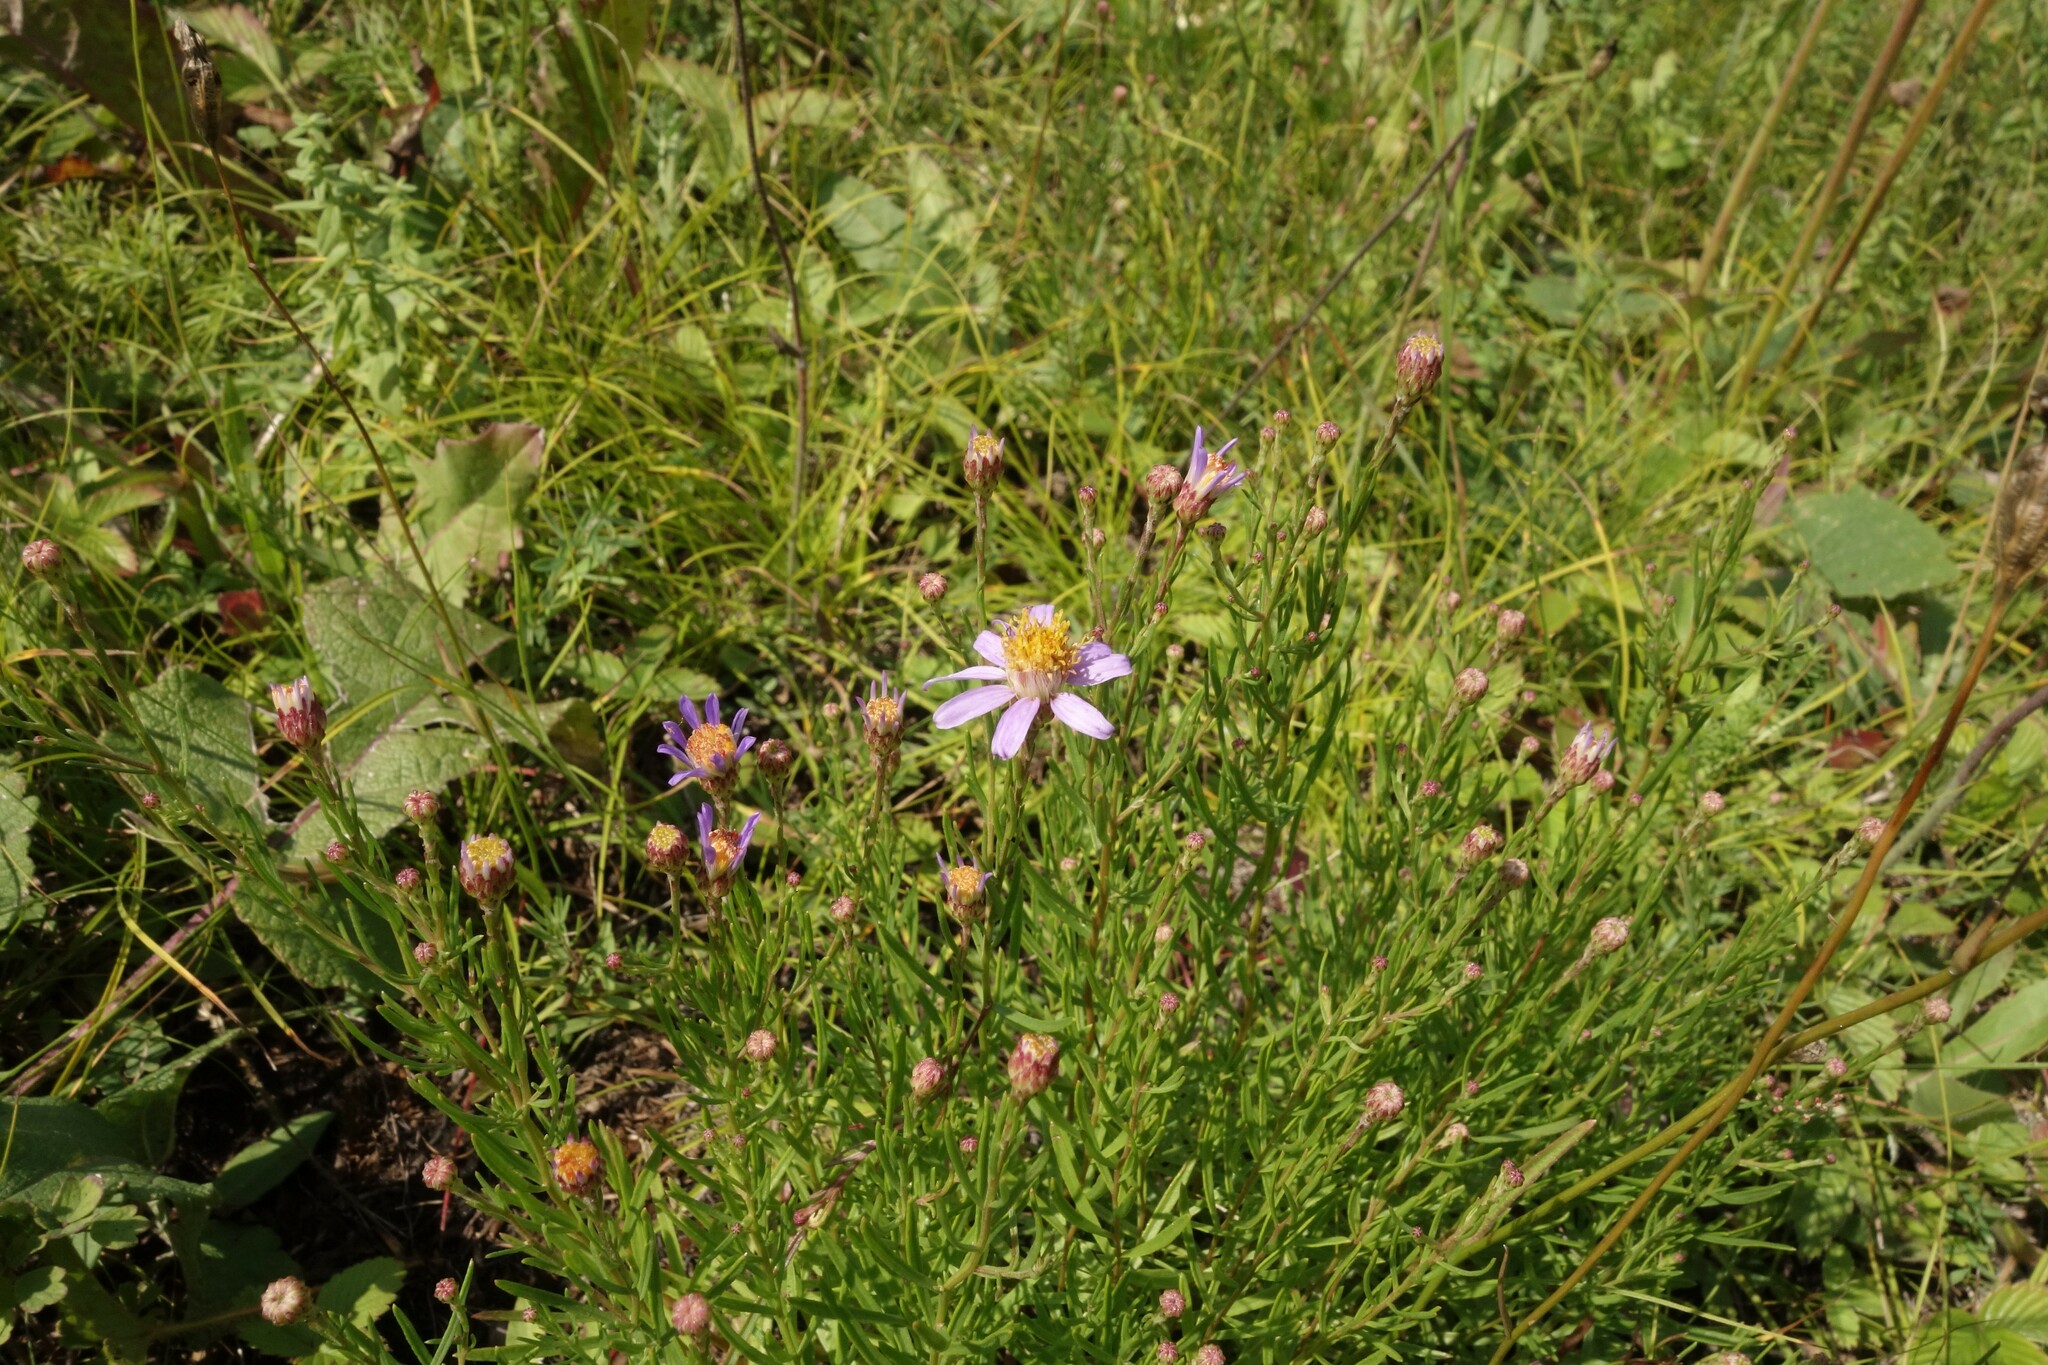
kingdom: Plantae
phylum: Tracheophyta
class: Magnoliopsida
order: Asterales
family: Asteraceae
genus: Galatella
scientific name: Galatella angustissima
